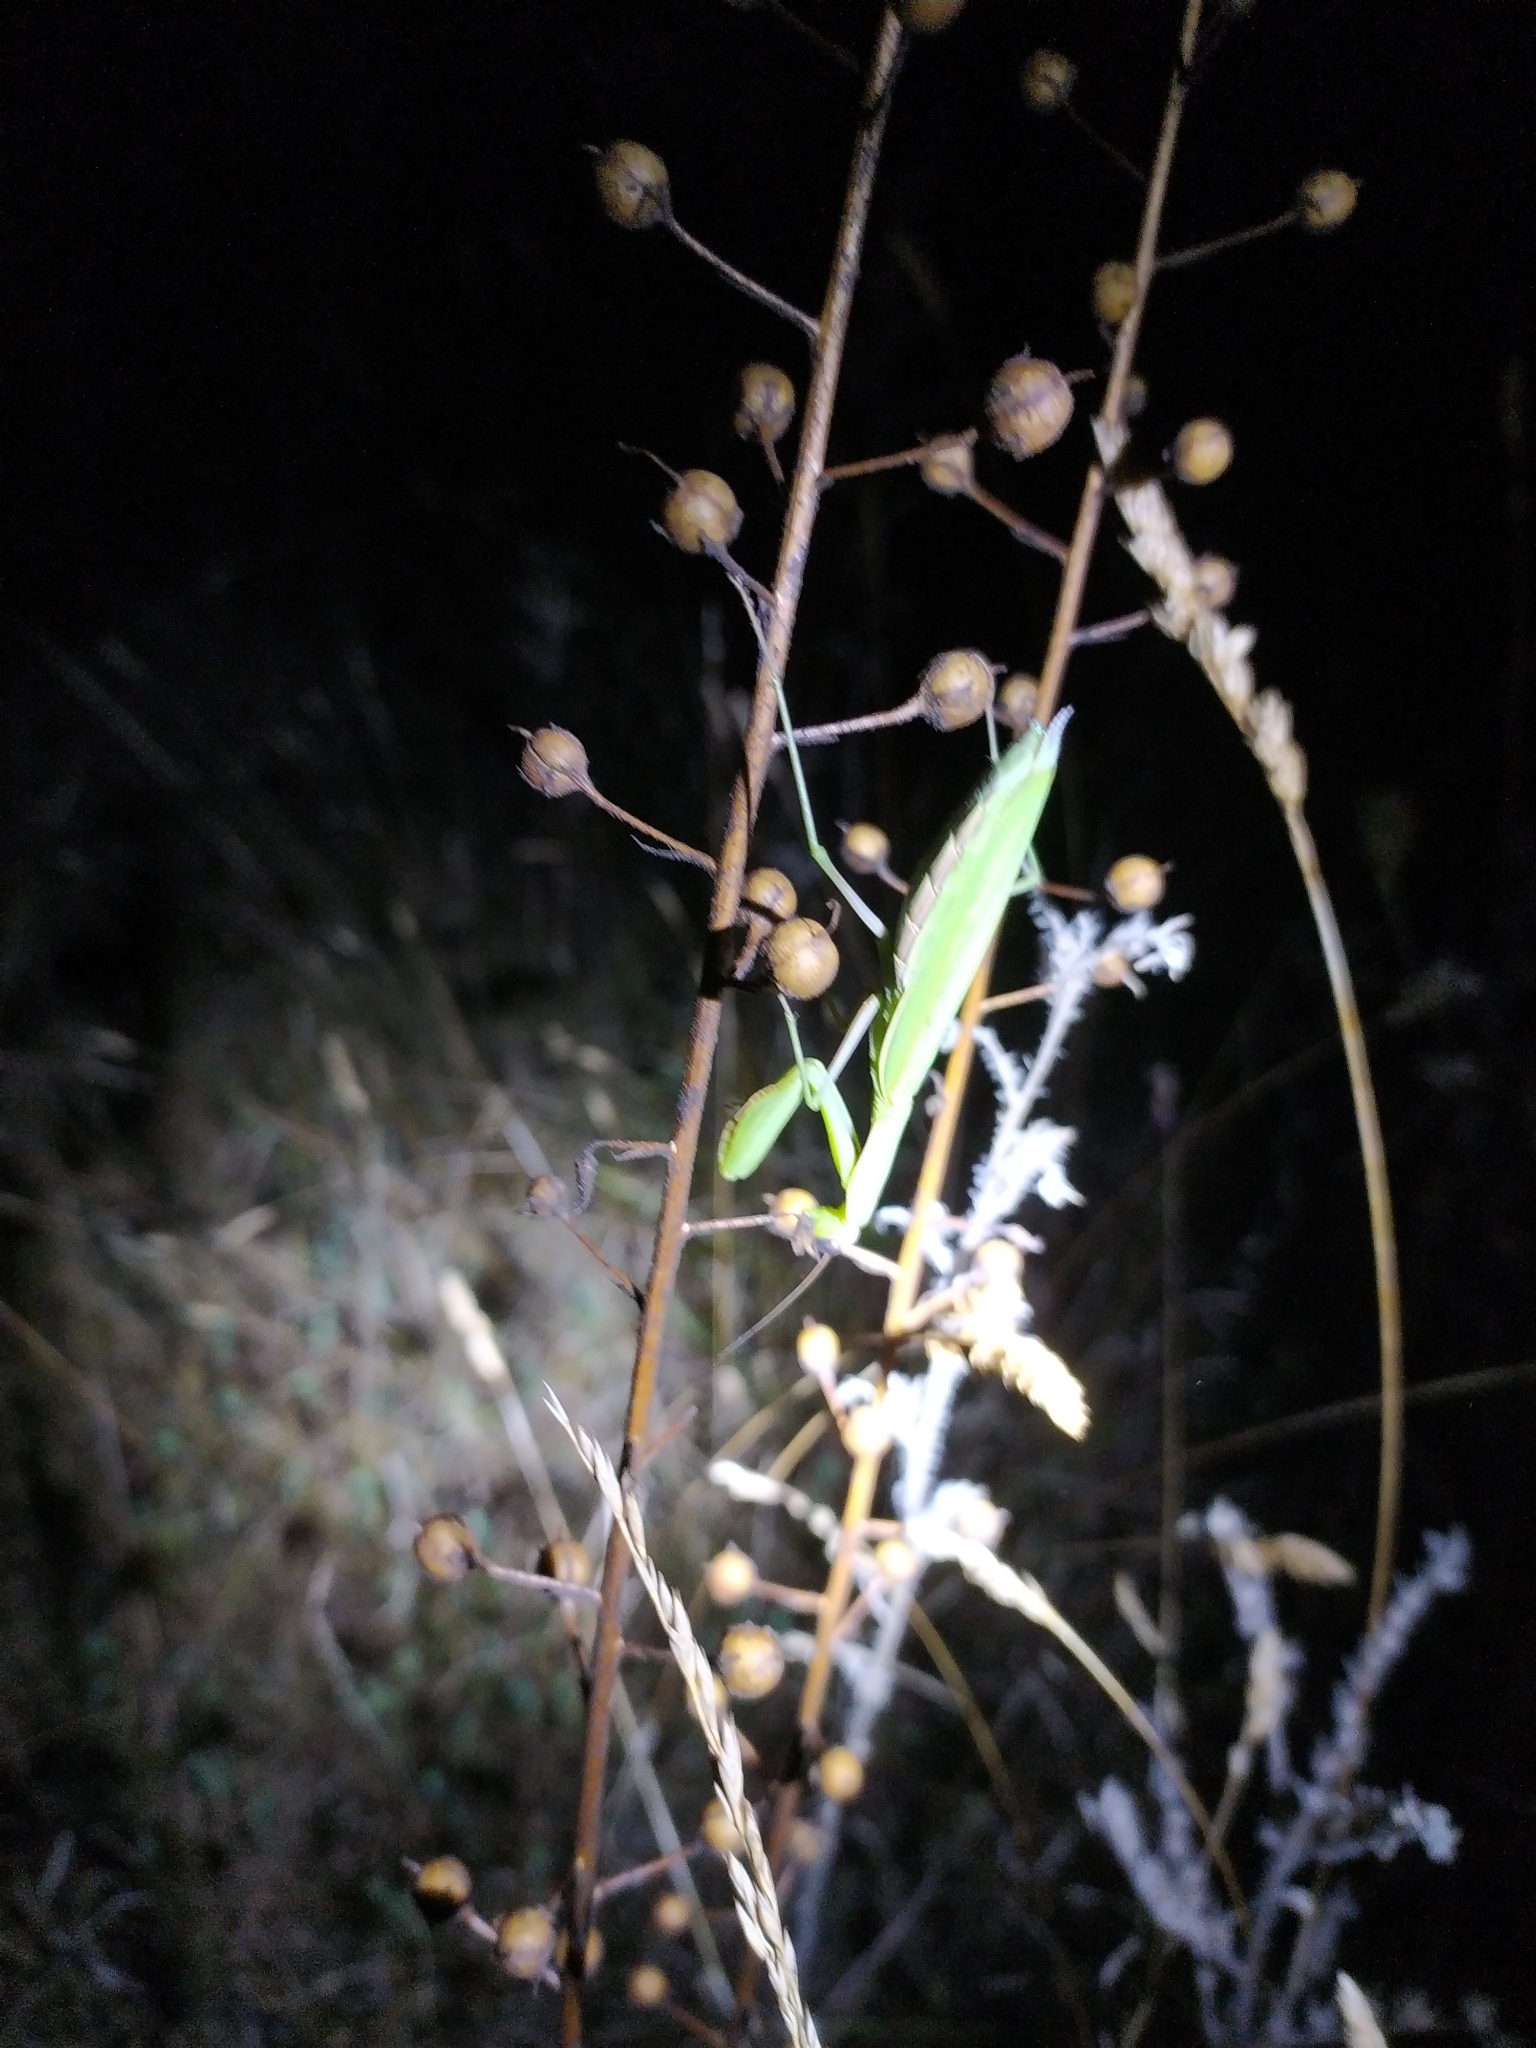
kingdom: Animalia
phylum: Arthropoda
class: Insecta
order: Mantodea
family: Mantidae
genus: Mantis
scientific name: Mantis religiosa
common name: Praying mantis
